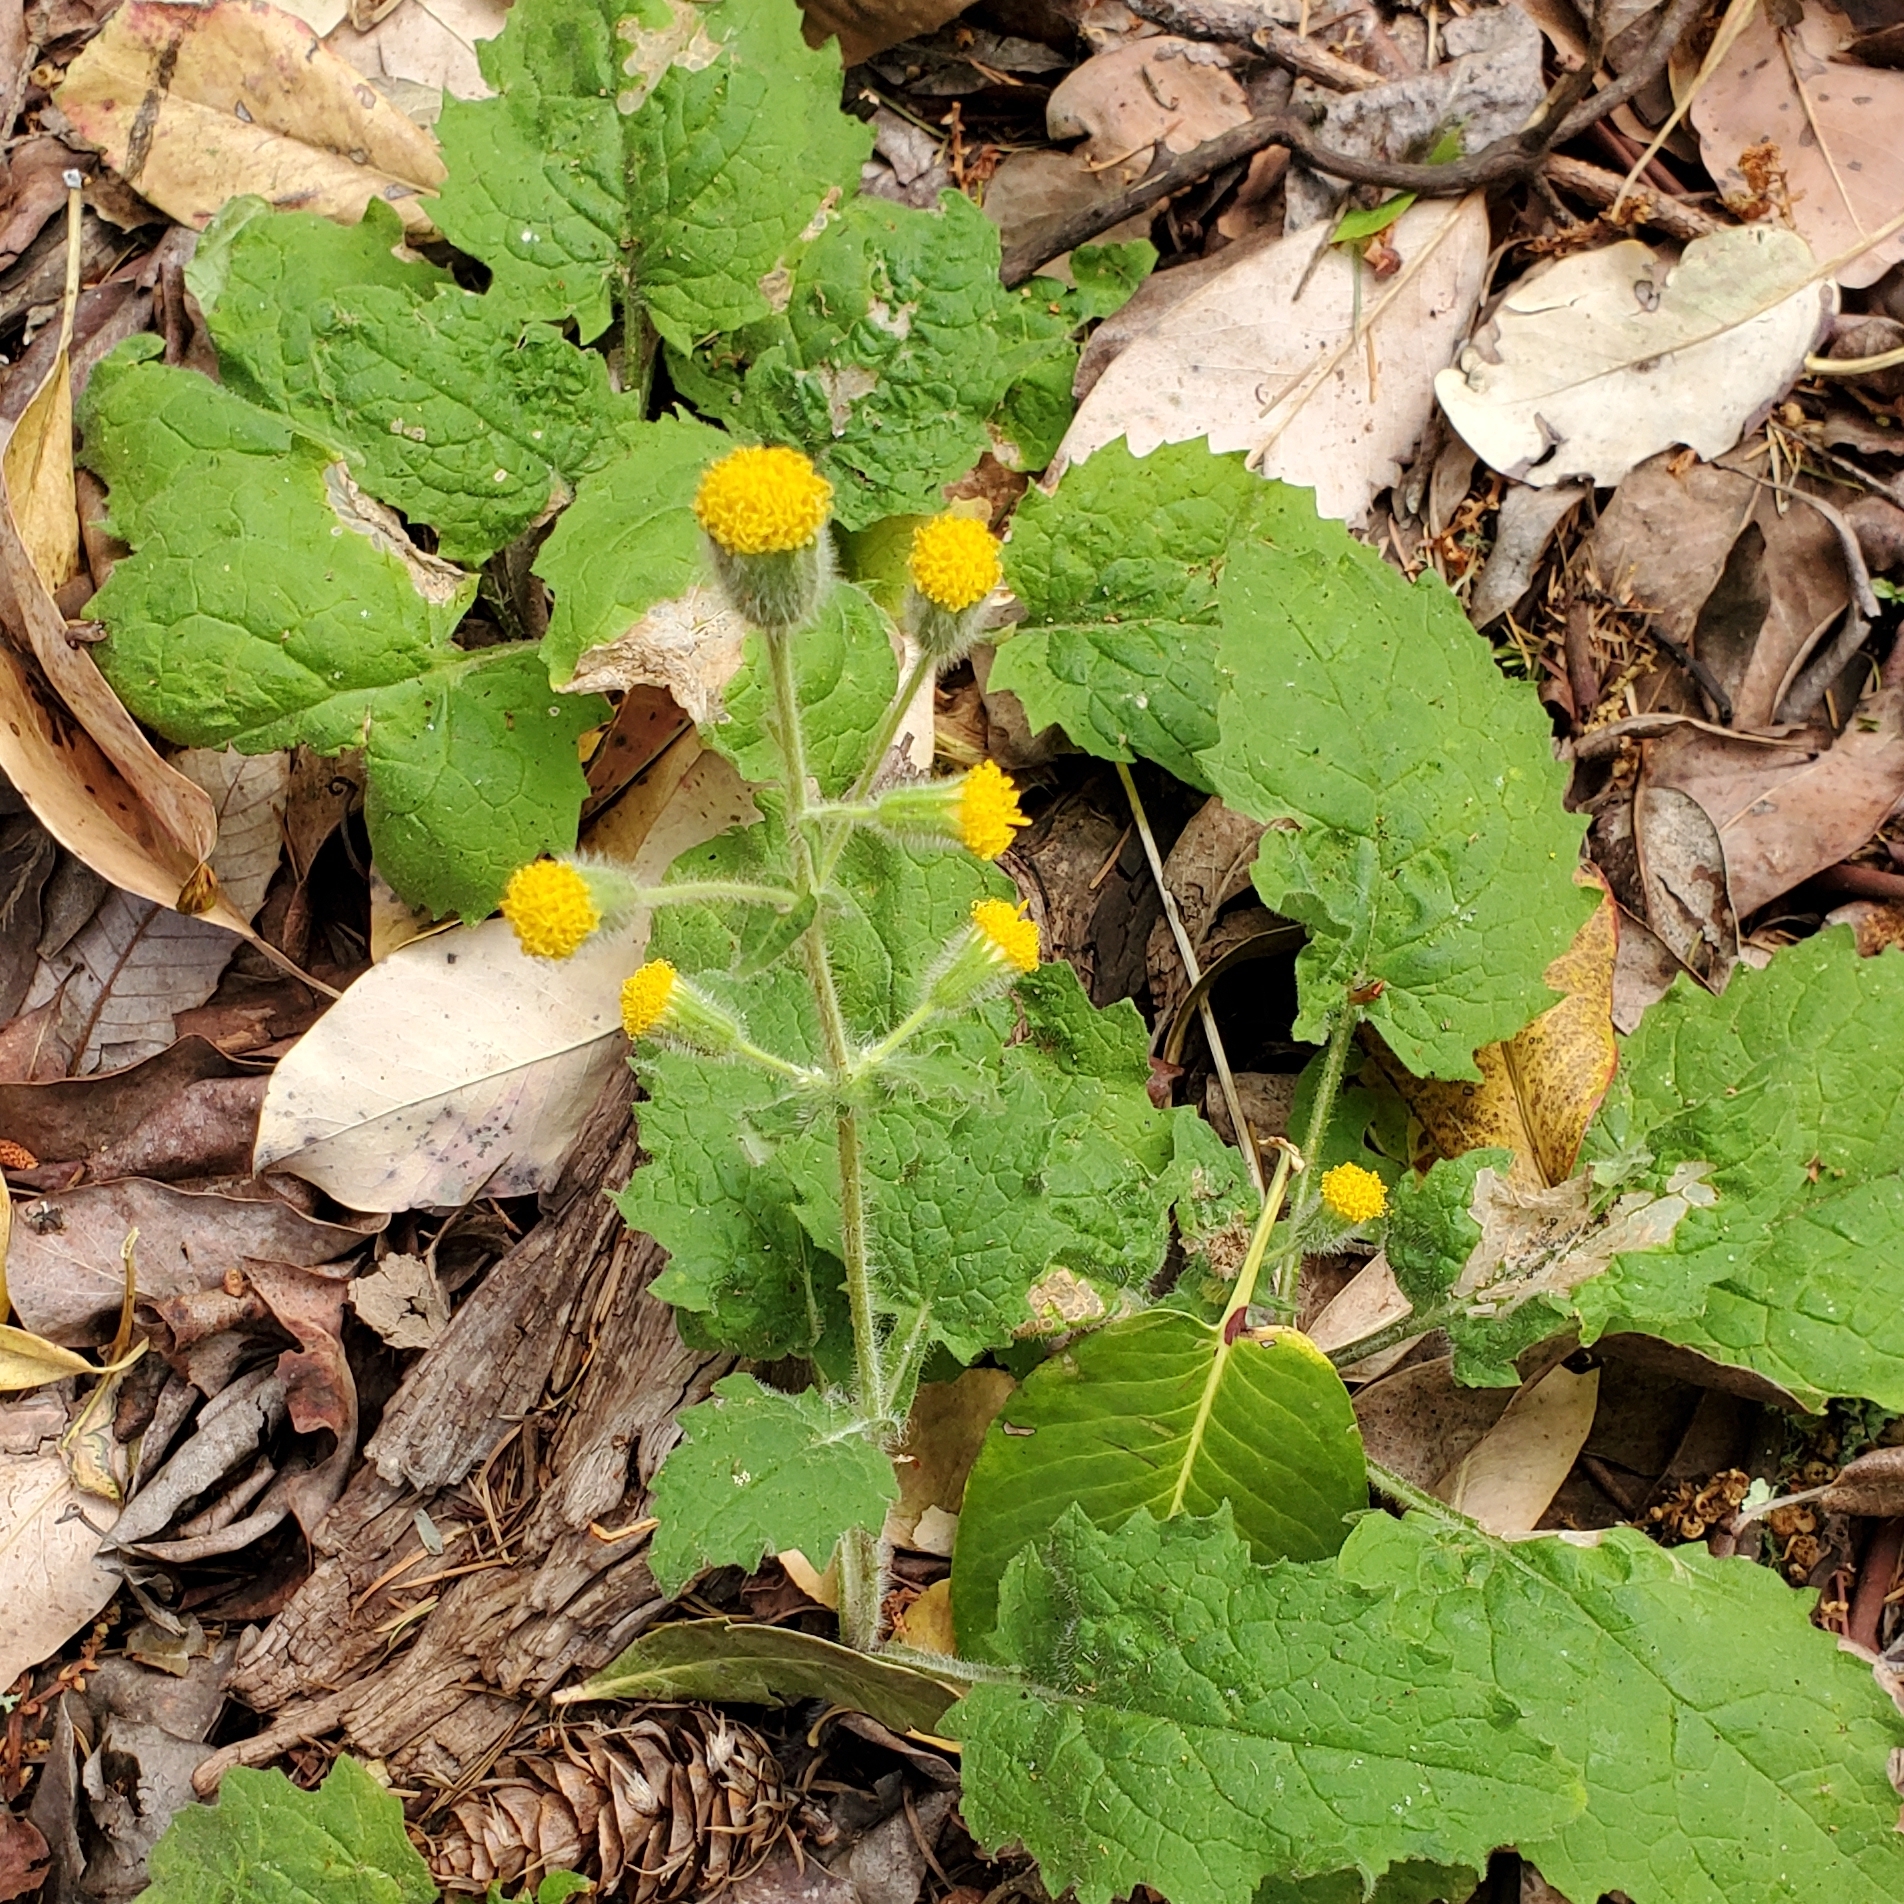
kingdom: Plantae
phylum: Tracheophyta
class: Magnoliopsida
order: Asterales
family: Asteraceae
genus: Arnica
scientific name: Arnica discoidea
